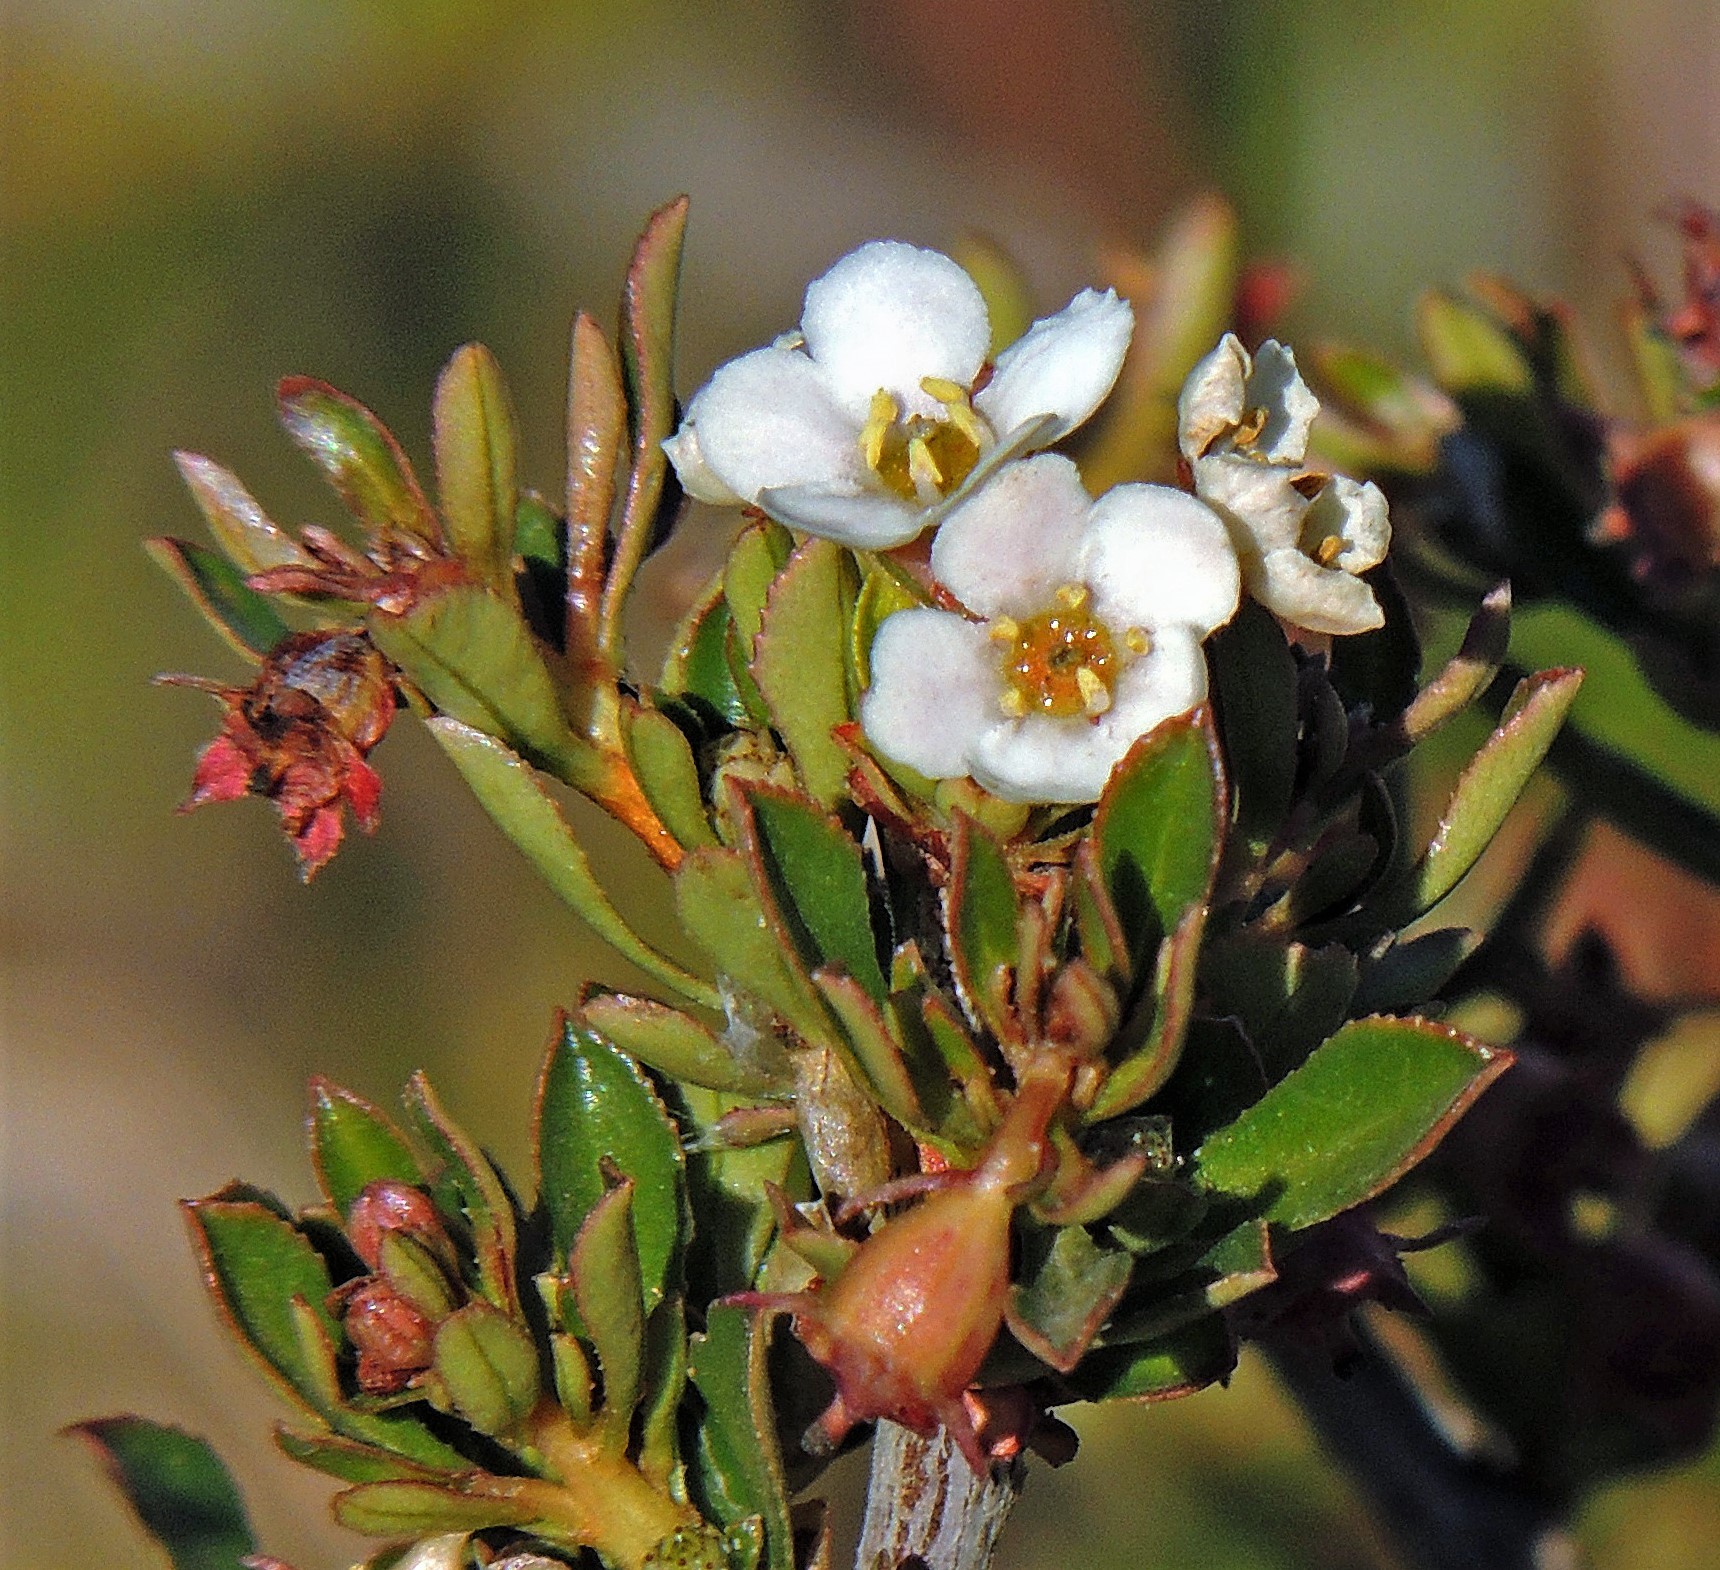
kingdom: Plantae
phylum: Tracheophyta
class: Magnoliopsida
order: Escalloniales
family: Escalloniaceae
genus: Escallonia
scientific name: Escallonia virgata
